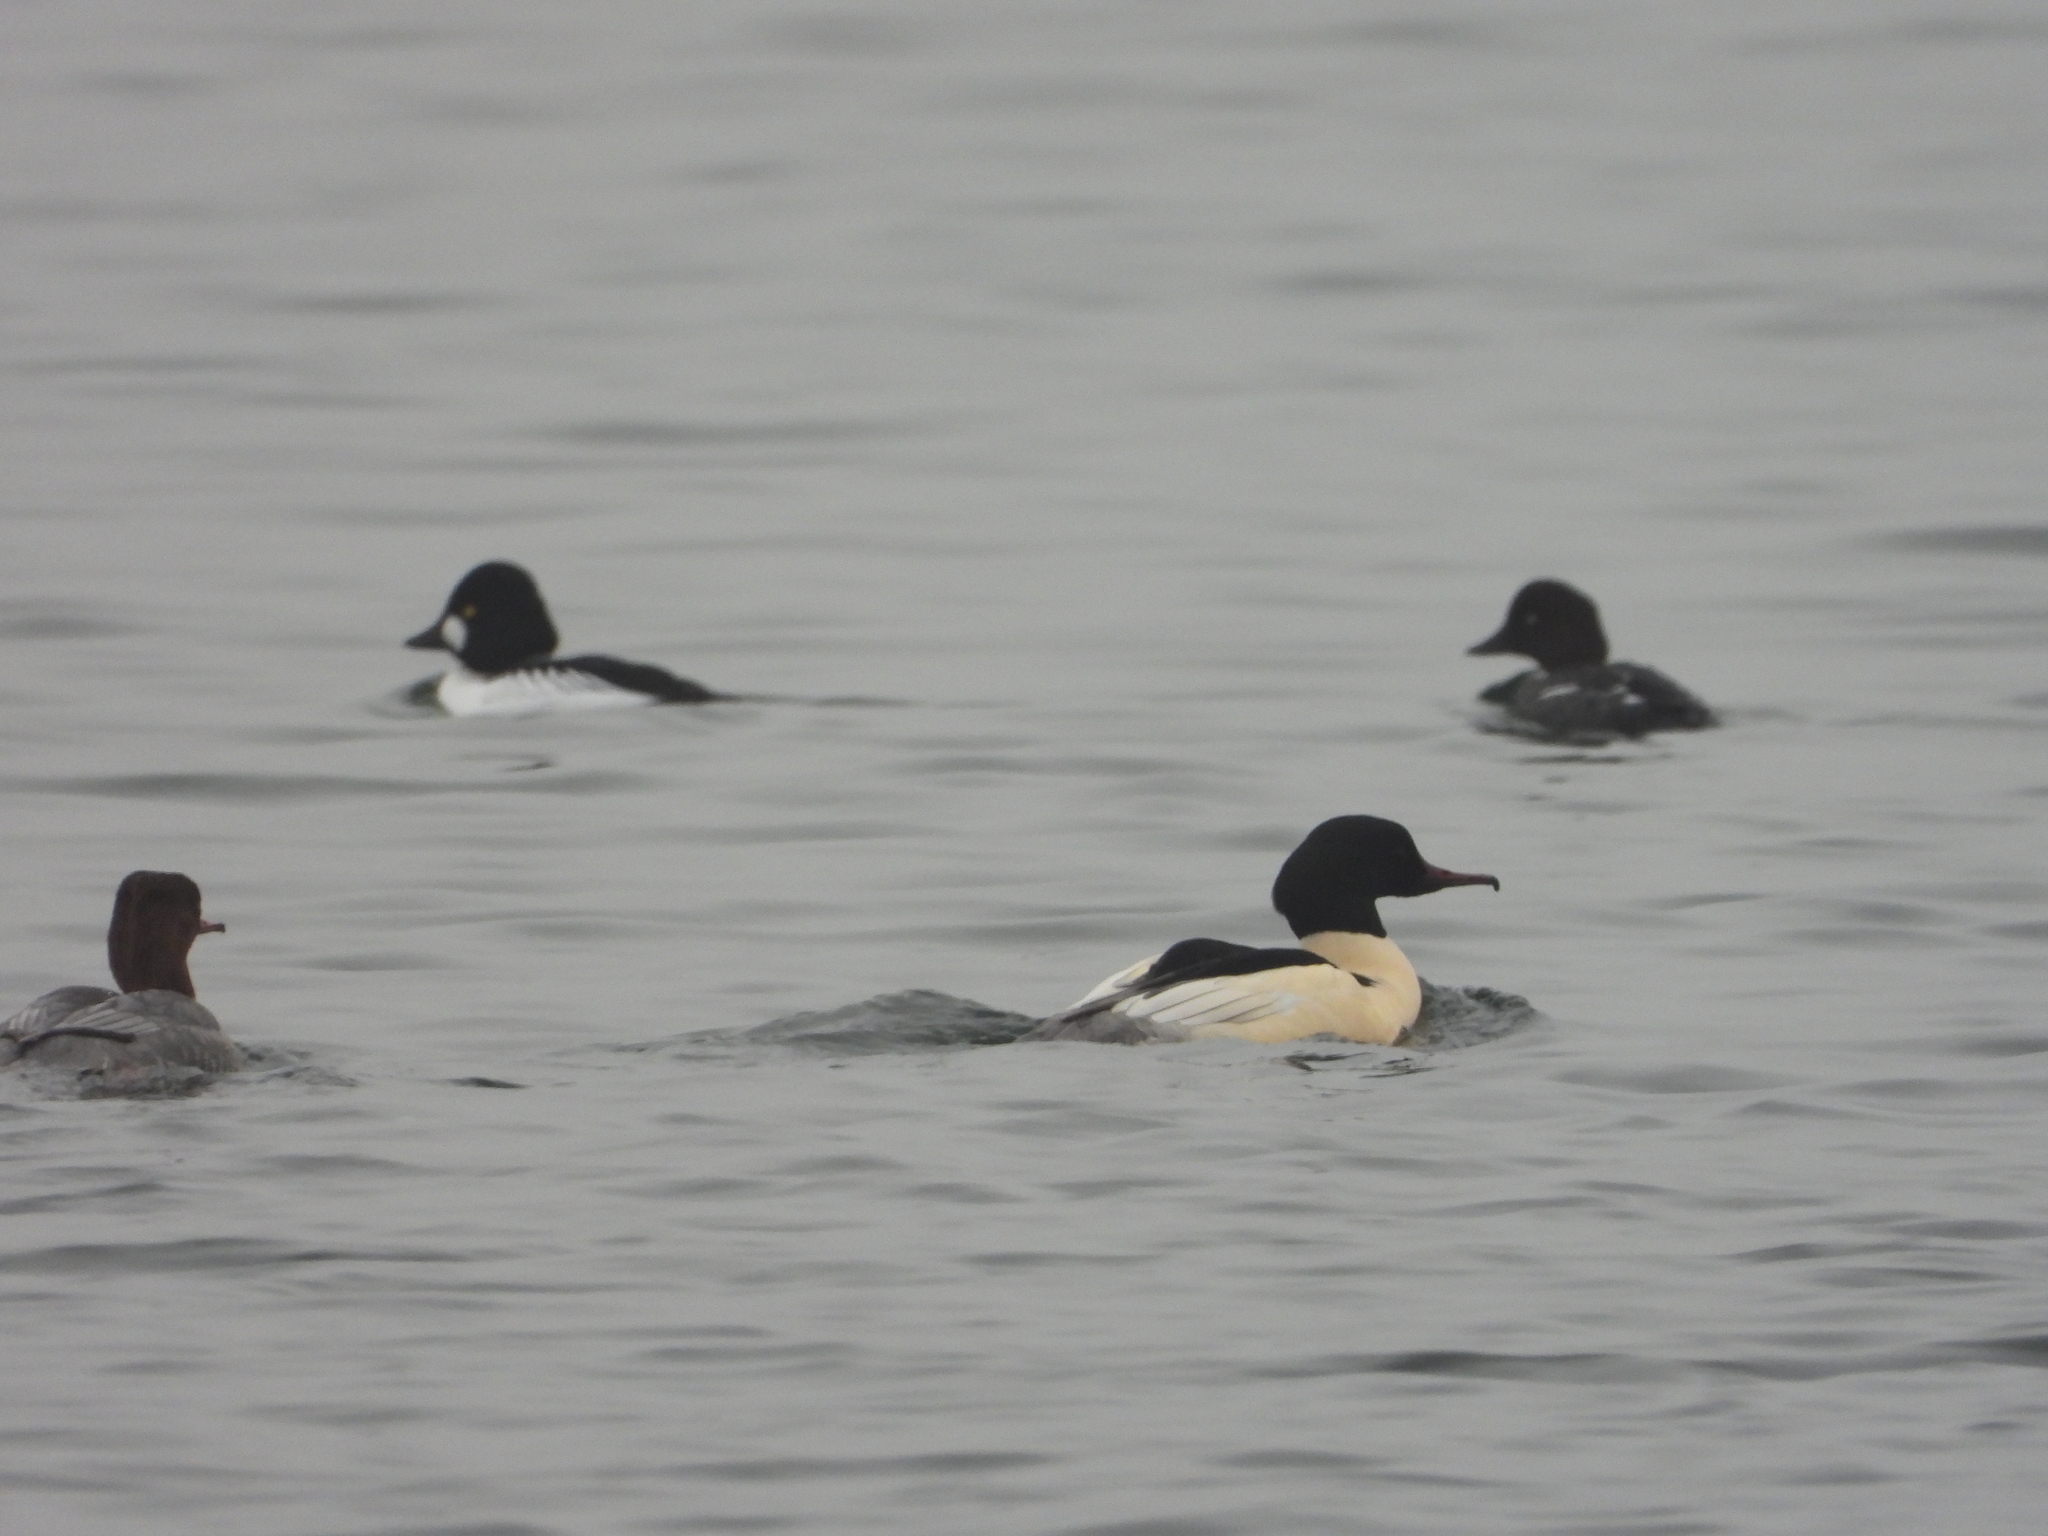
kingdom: Animalia
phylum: Chordata
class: Aves
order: Anseriformes
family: Anatidae
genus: Mergus
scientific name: Mergus merganser
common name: Common merganser
